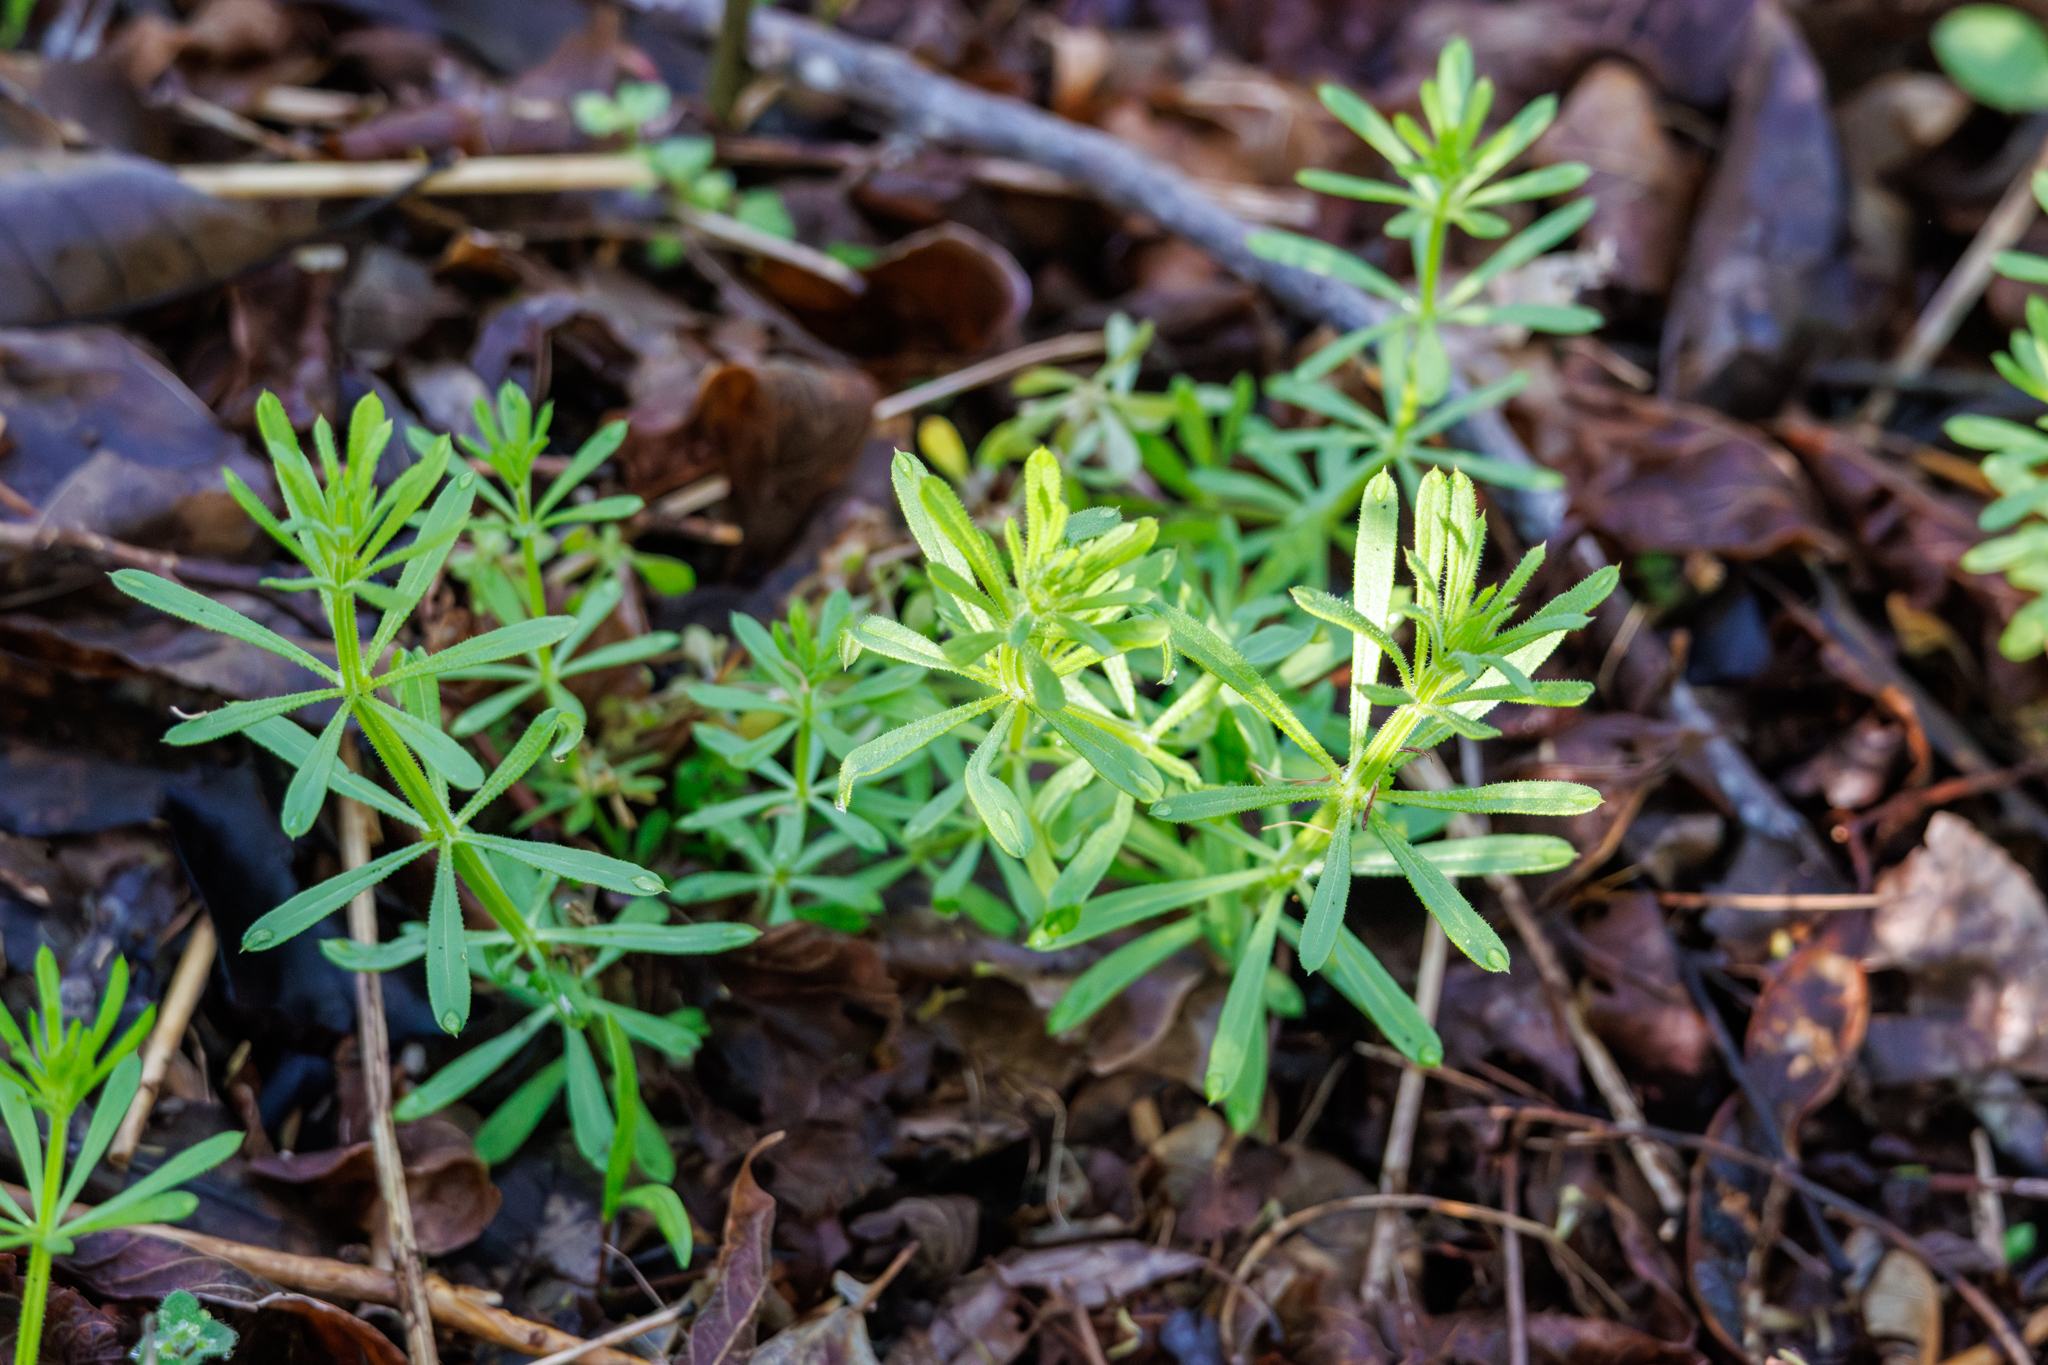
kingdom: Plantae
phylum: Tracheophyta
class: Magnoliopsida
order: Gentianales
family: Rubiaceae
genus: Galium
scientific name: Galium aparine
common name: Cleavers
